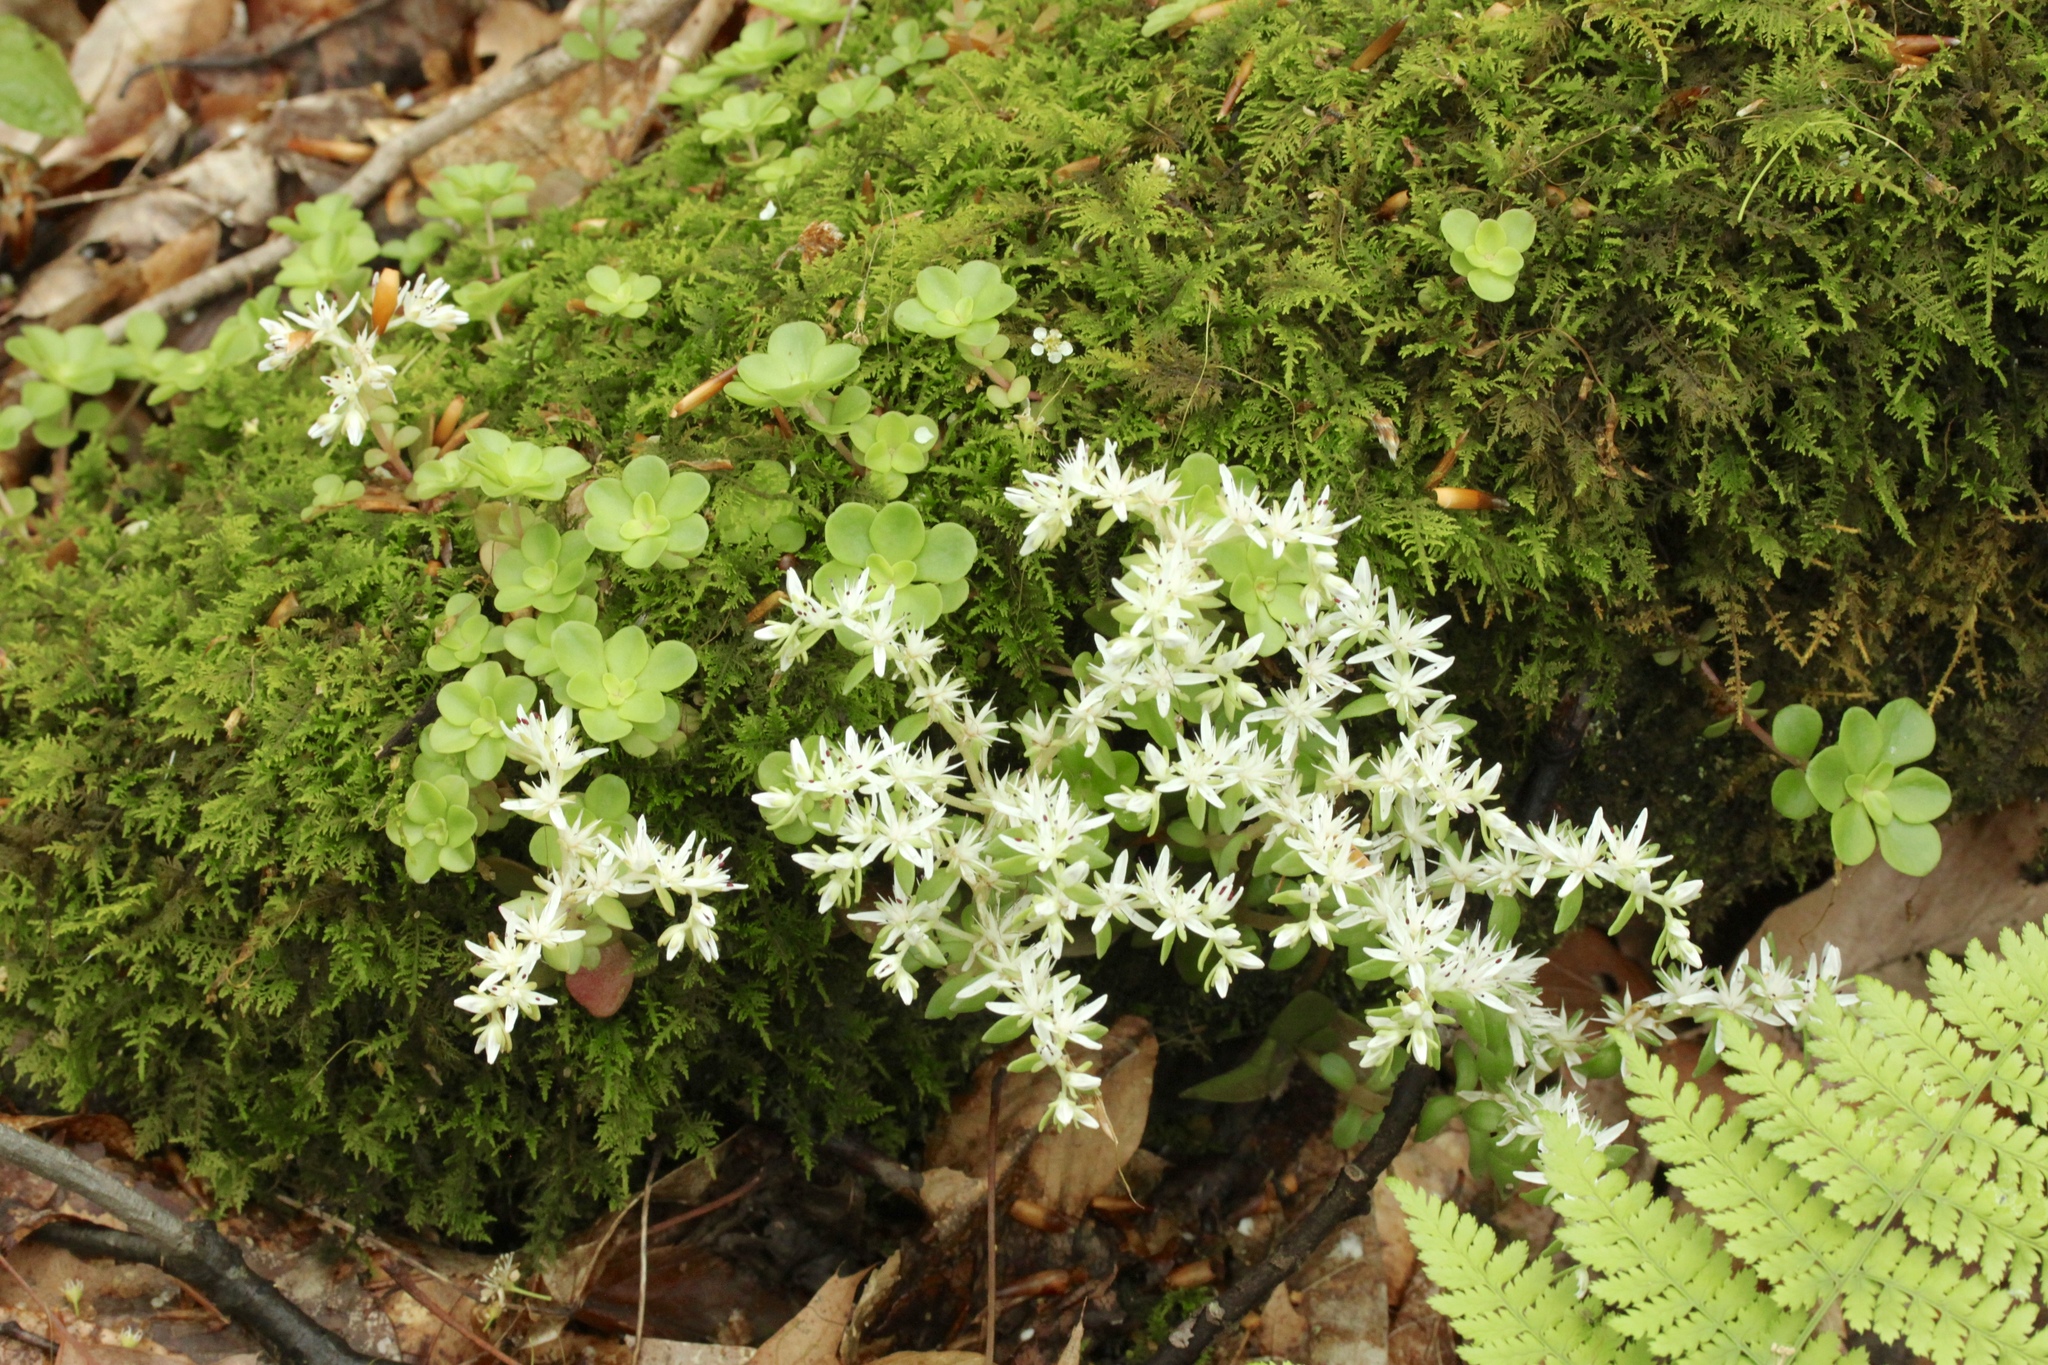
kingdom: Plantae
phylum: Tracheophyta
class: Magnoliopsida
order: Saxifragales
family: Crassulaceae
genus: Sedum
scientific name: Sedum ternatum
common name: Wild stonecrop
